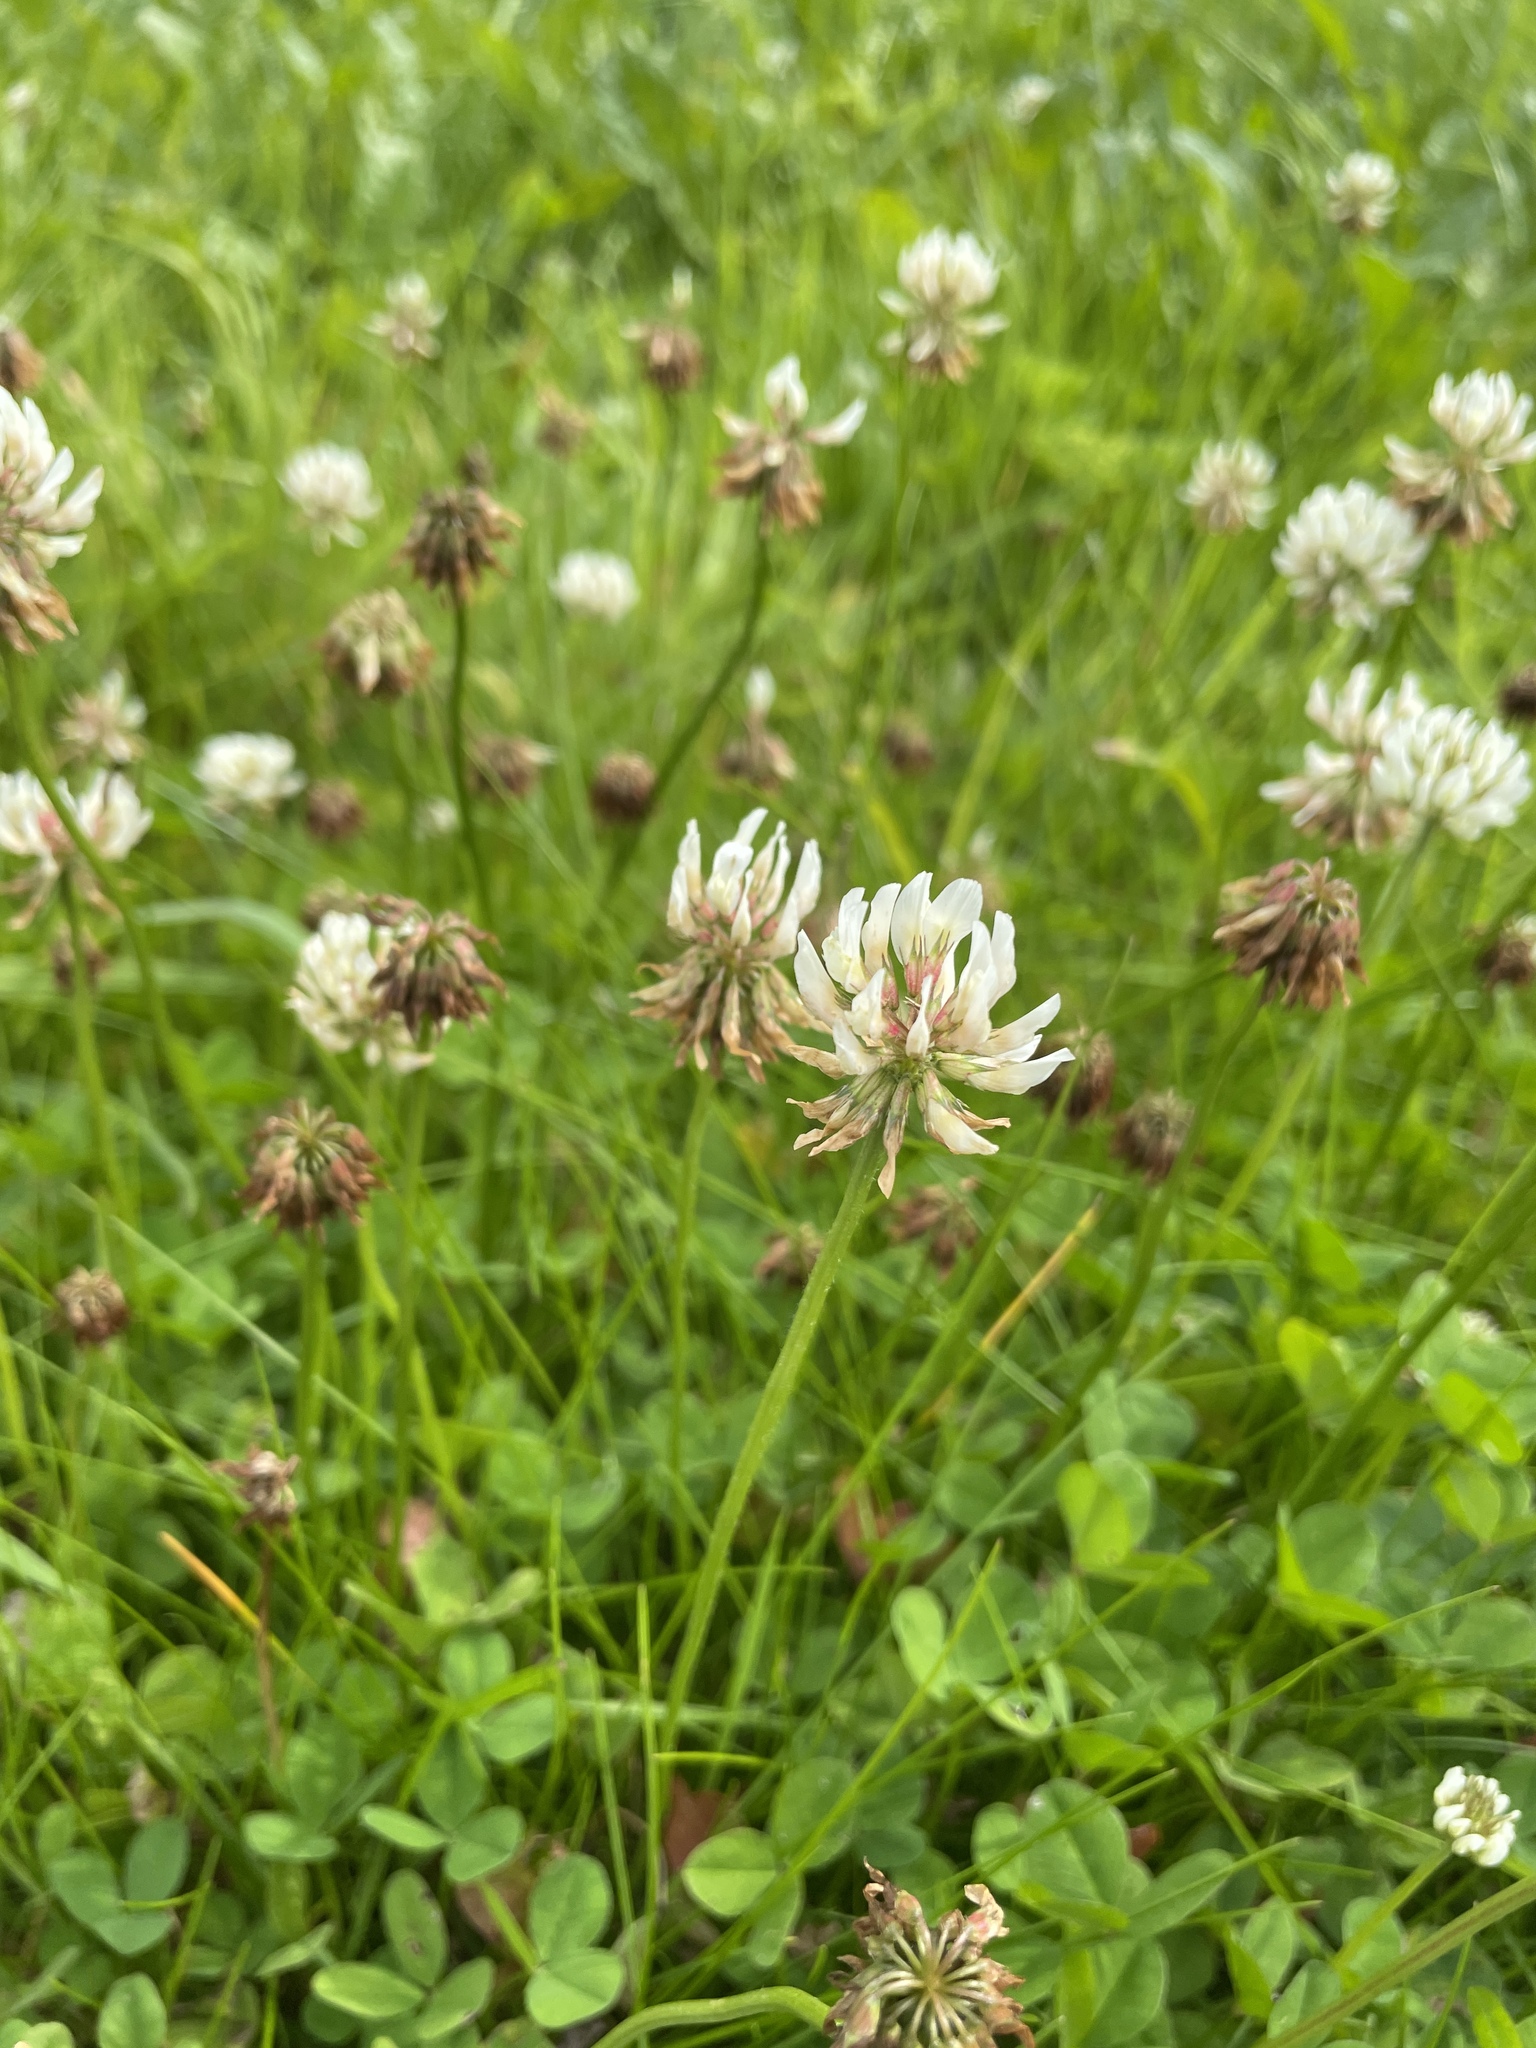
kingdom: Plantae
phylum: Tracheophyta
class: Magnoliopsida
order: Fabales
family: Fabaceae
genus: Trifolium
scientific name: Trifolium repens
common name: White clover
